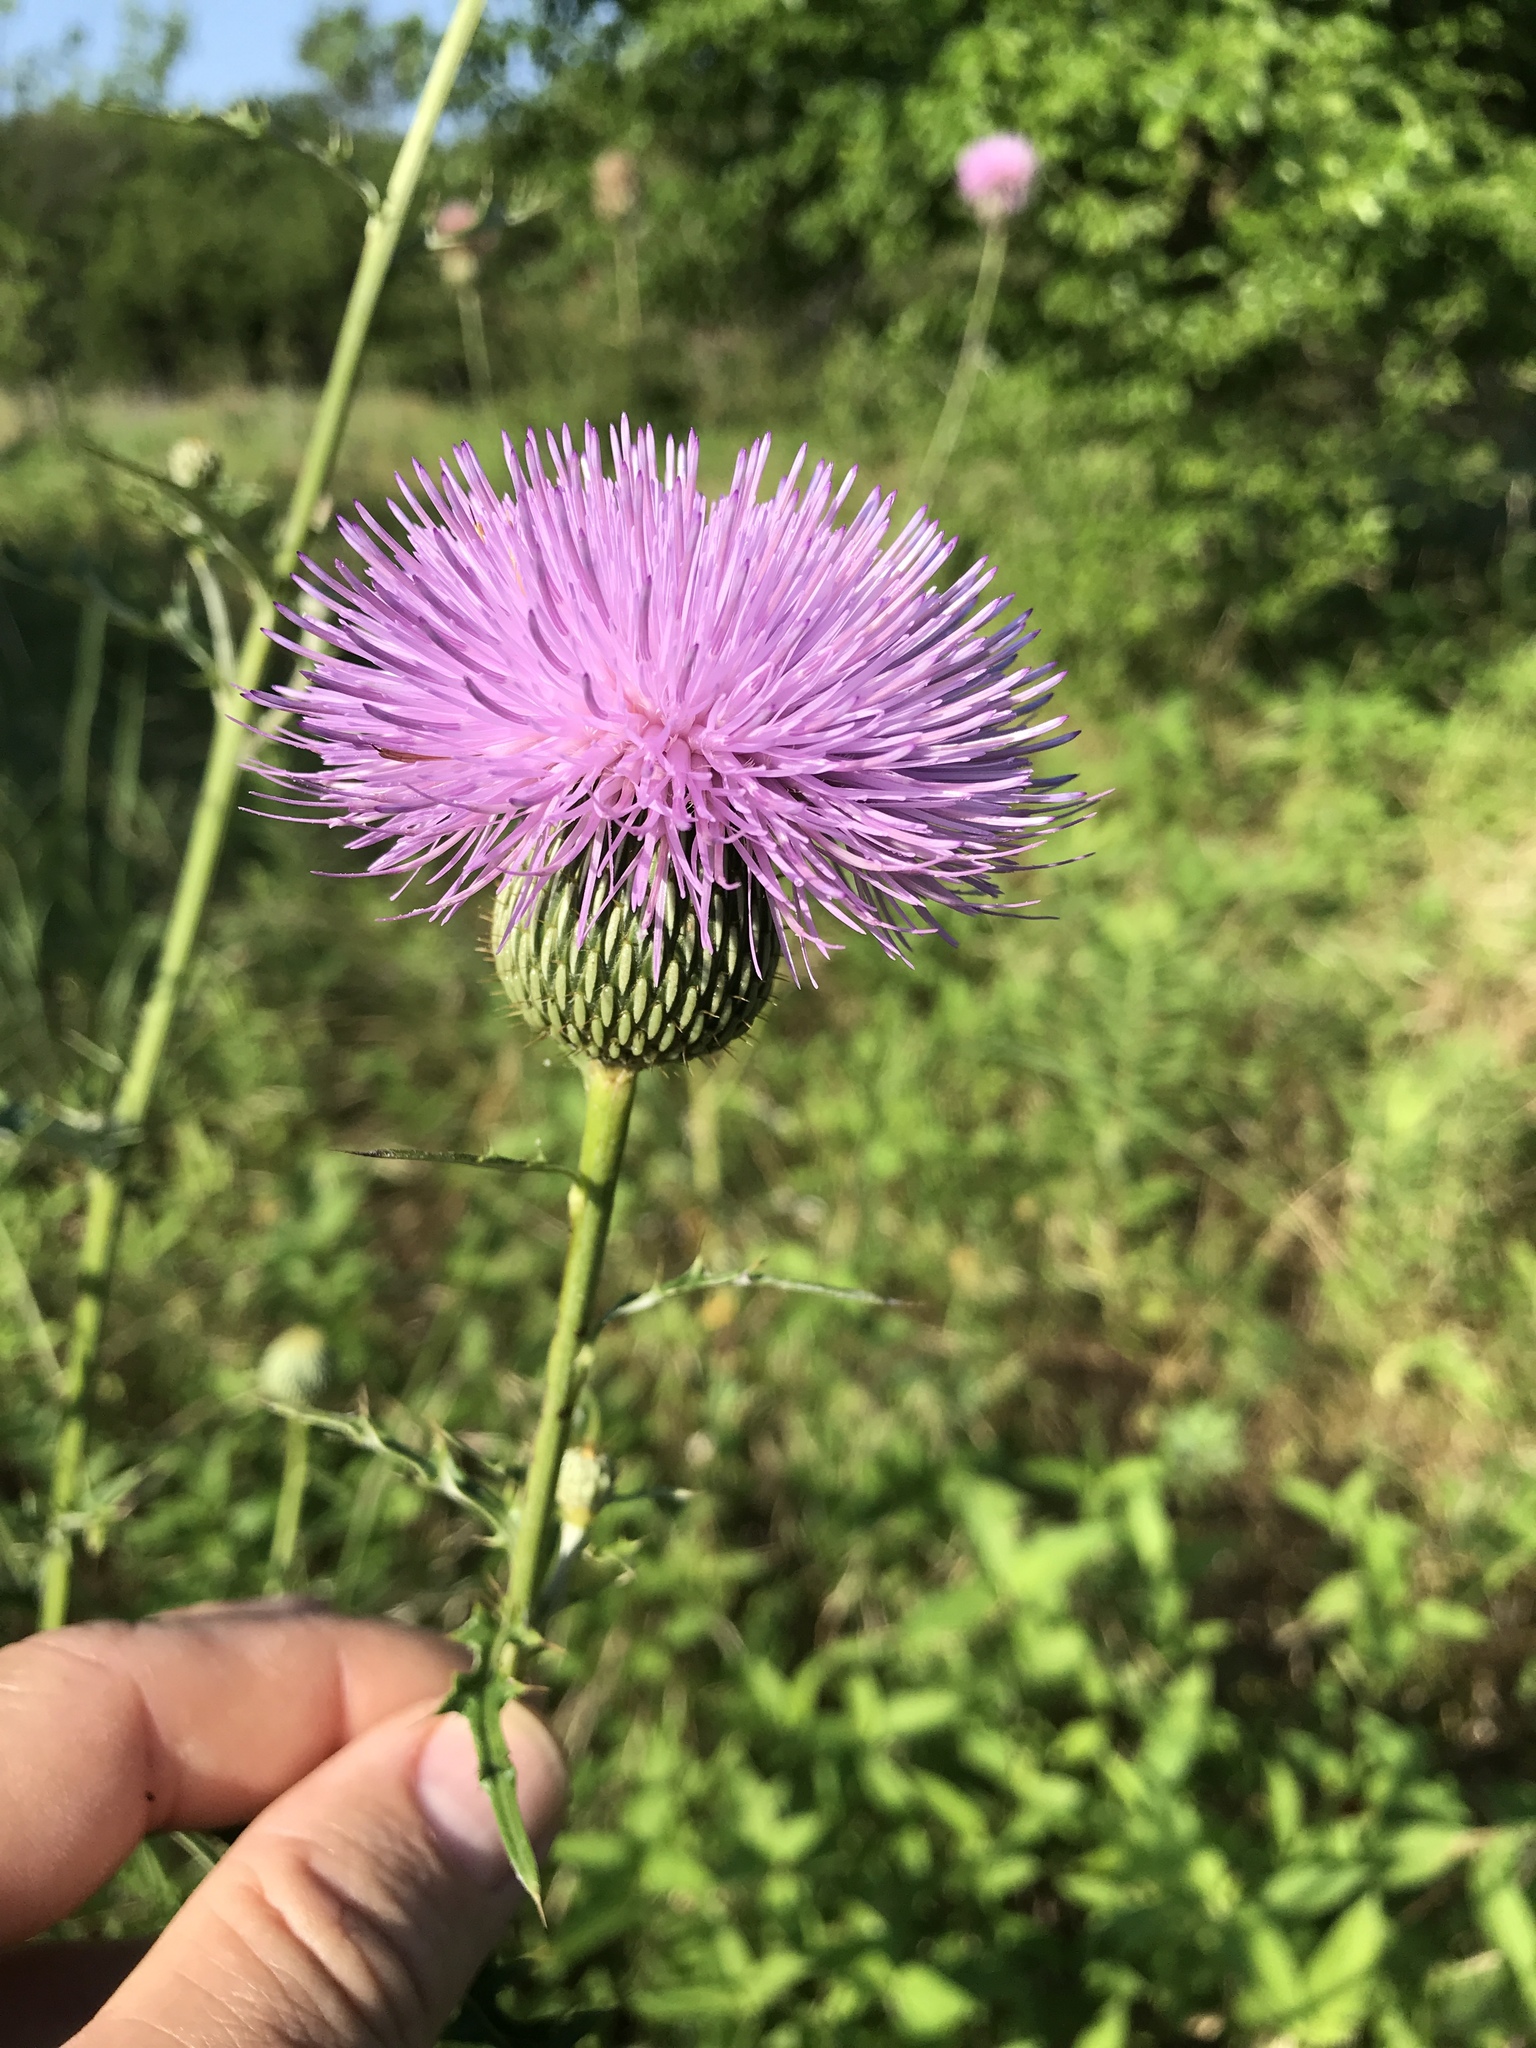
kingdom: Plantae
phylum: Tracheophyta
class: Magnoliopsida
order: Asterales
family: Asteraceae
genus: Cirsium
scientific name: Cirsium texanum
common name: Texas purple thistle
